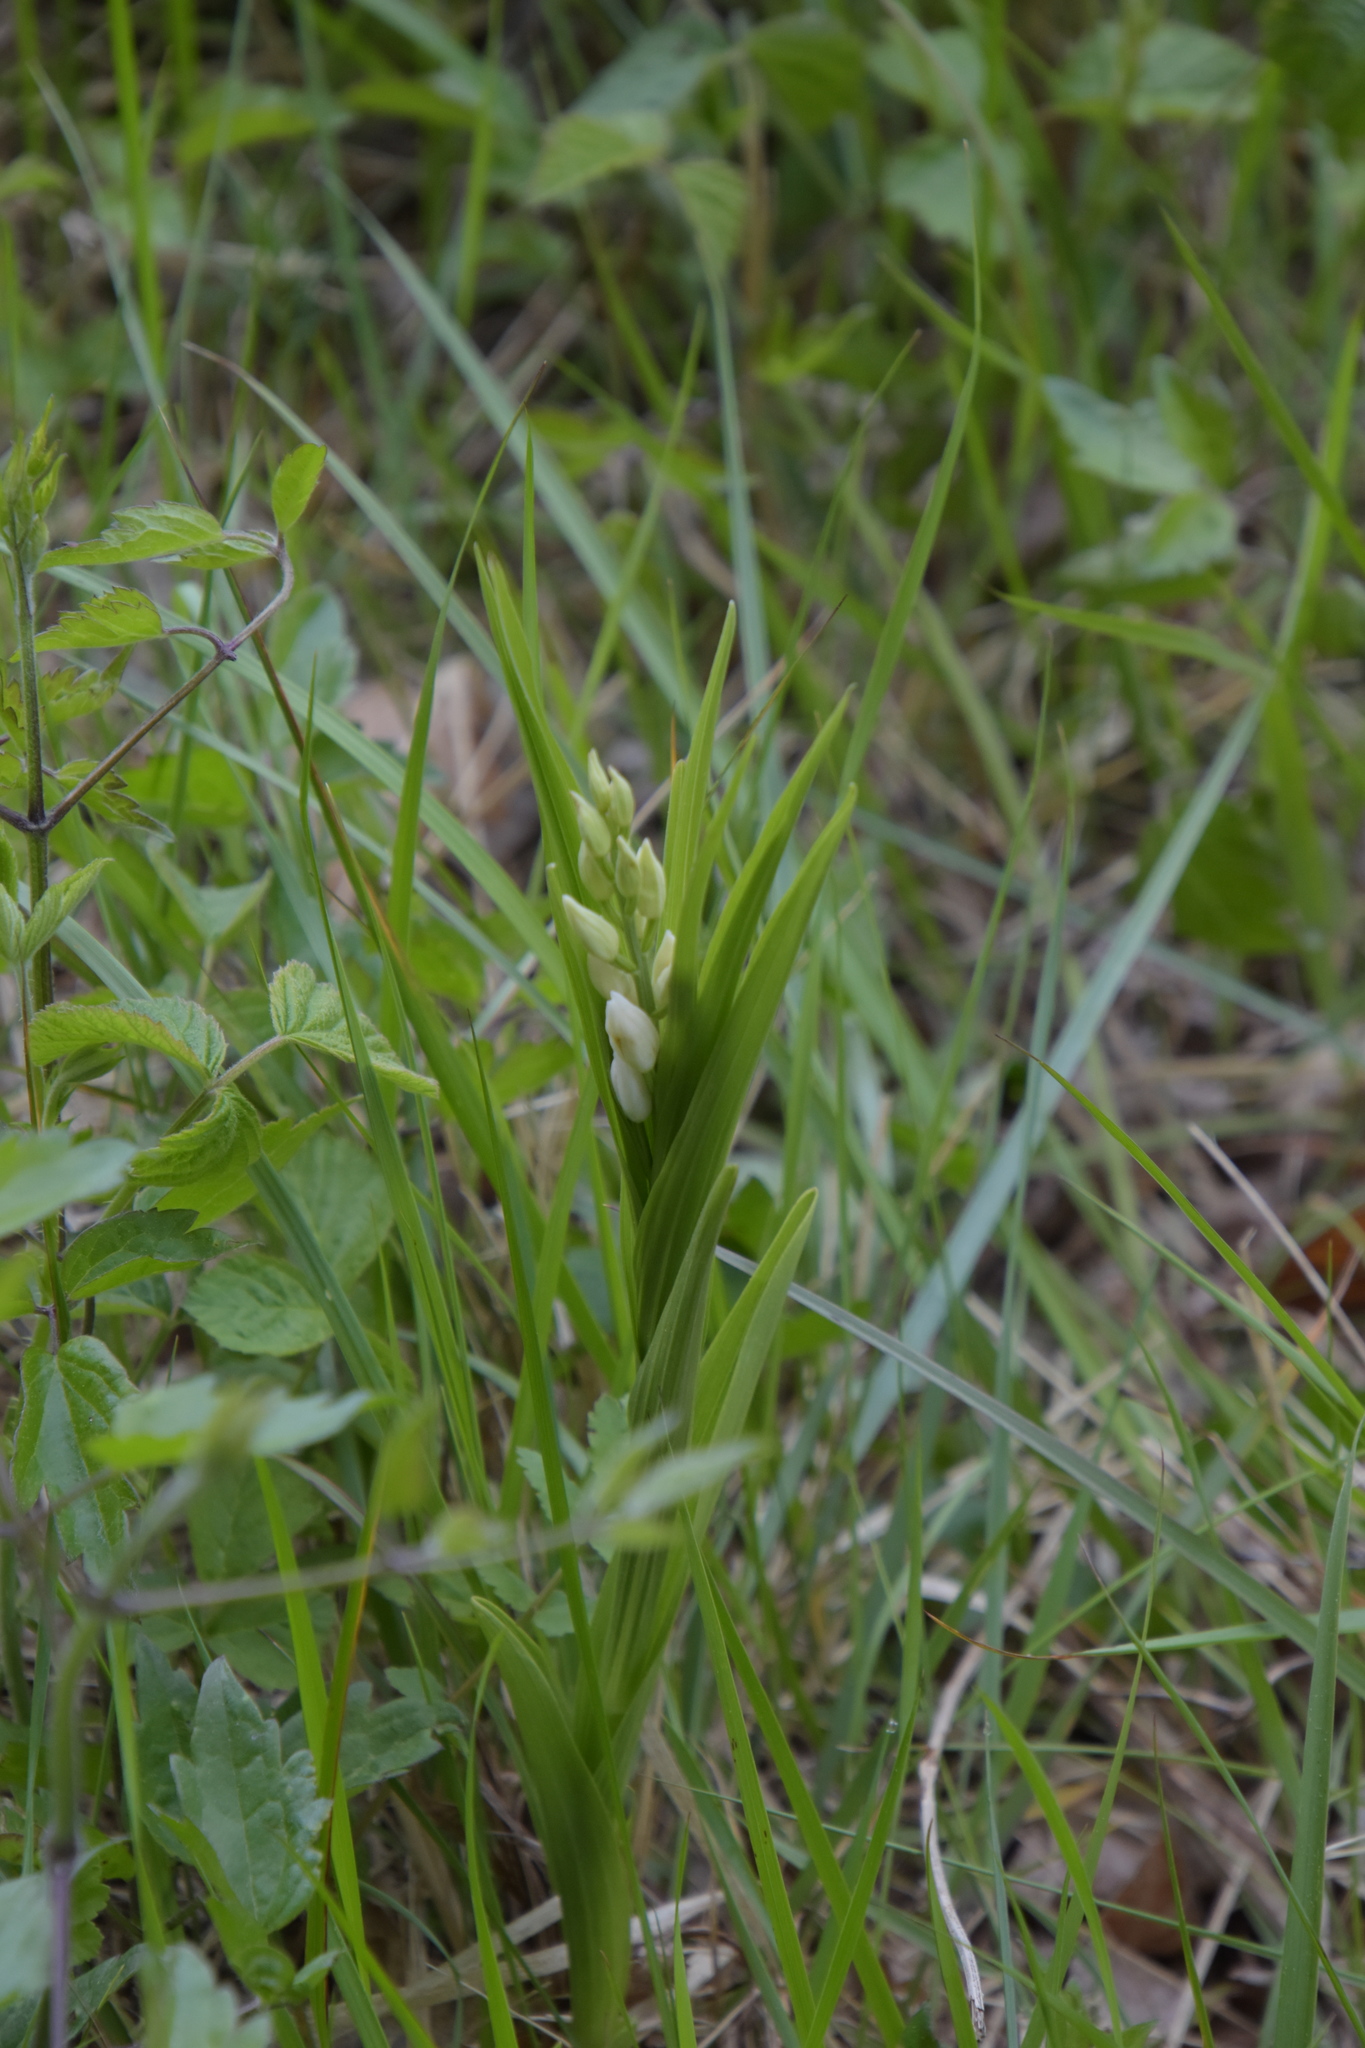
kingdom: Plantae
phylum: Tracheophyta
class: Liliopsida
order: Asparagales
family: Orchidaceae
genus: Cephalanthera
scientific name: Cephalanthera longifolia
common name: Narrow-leaved helleborine
